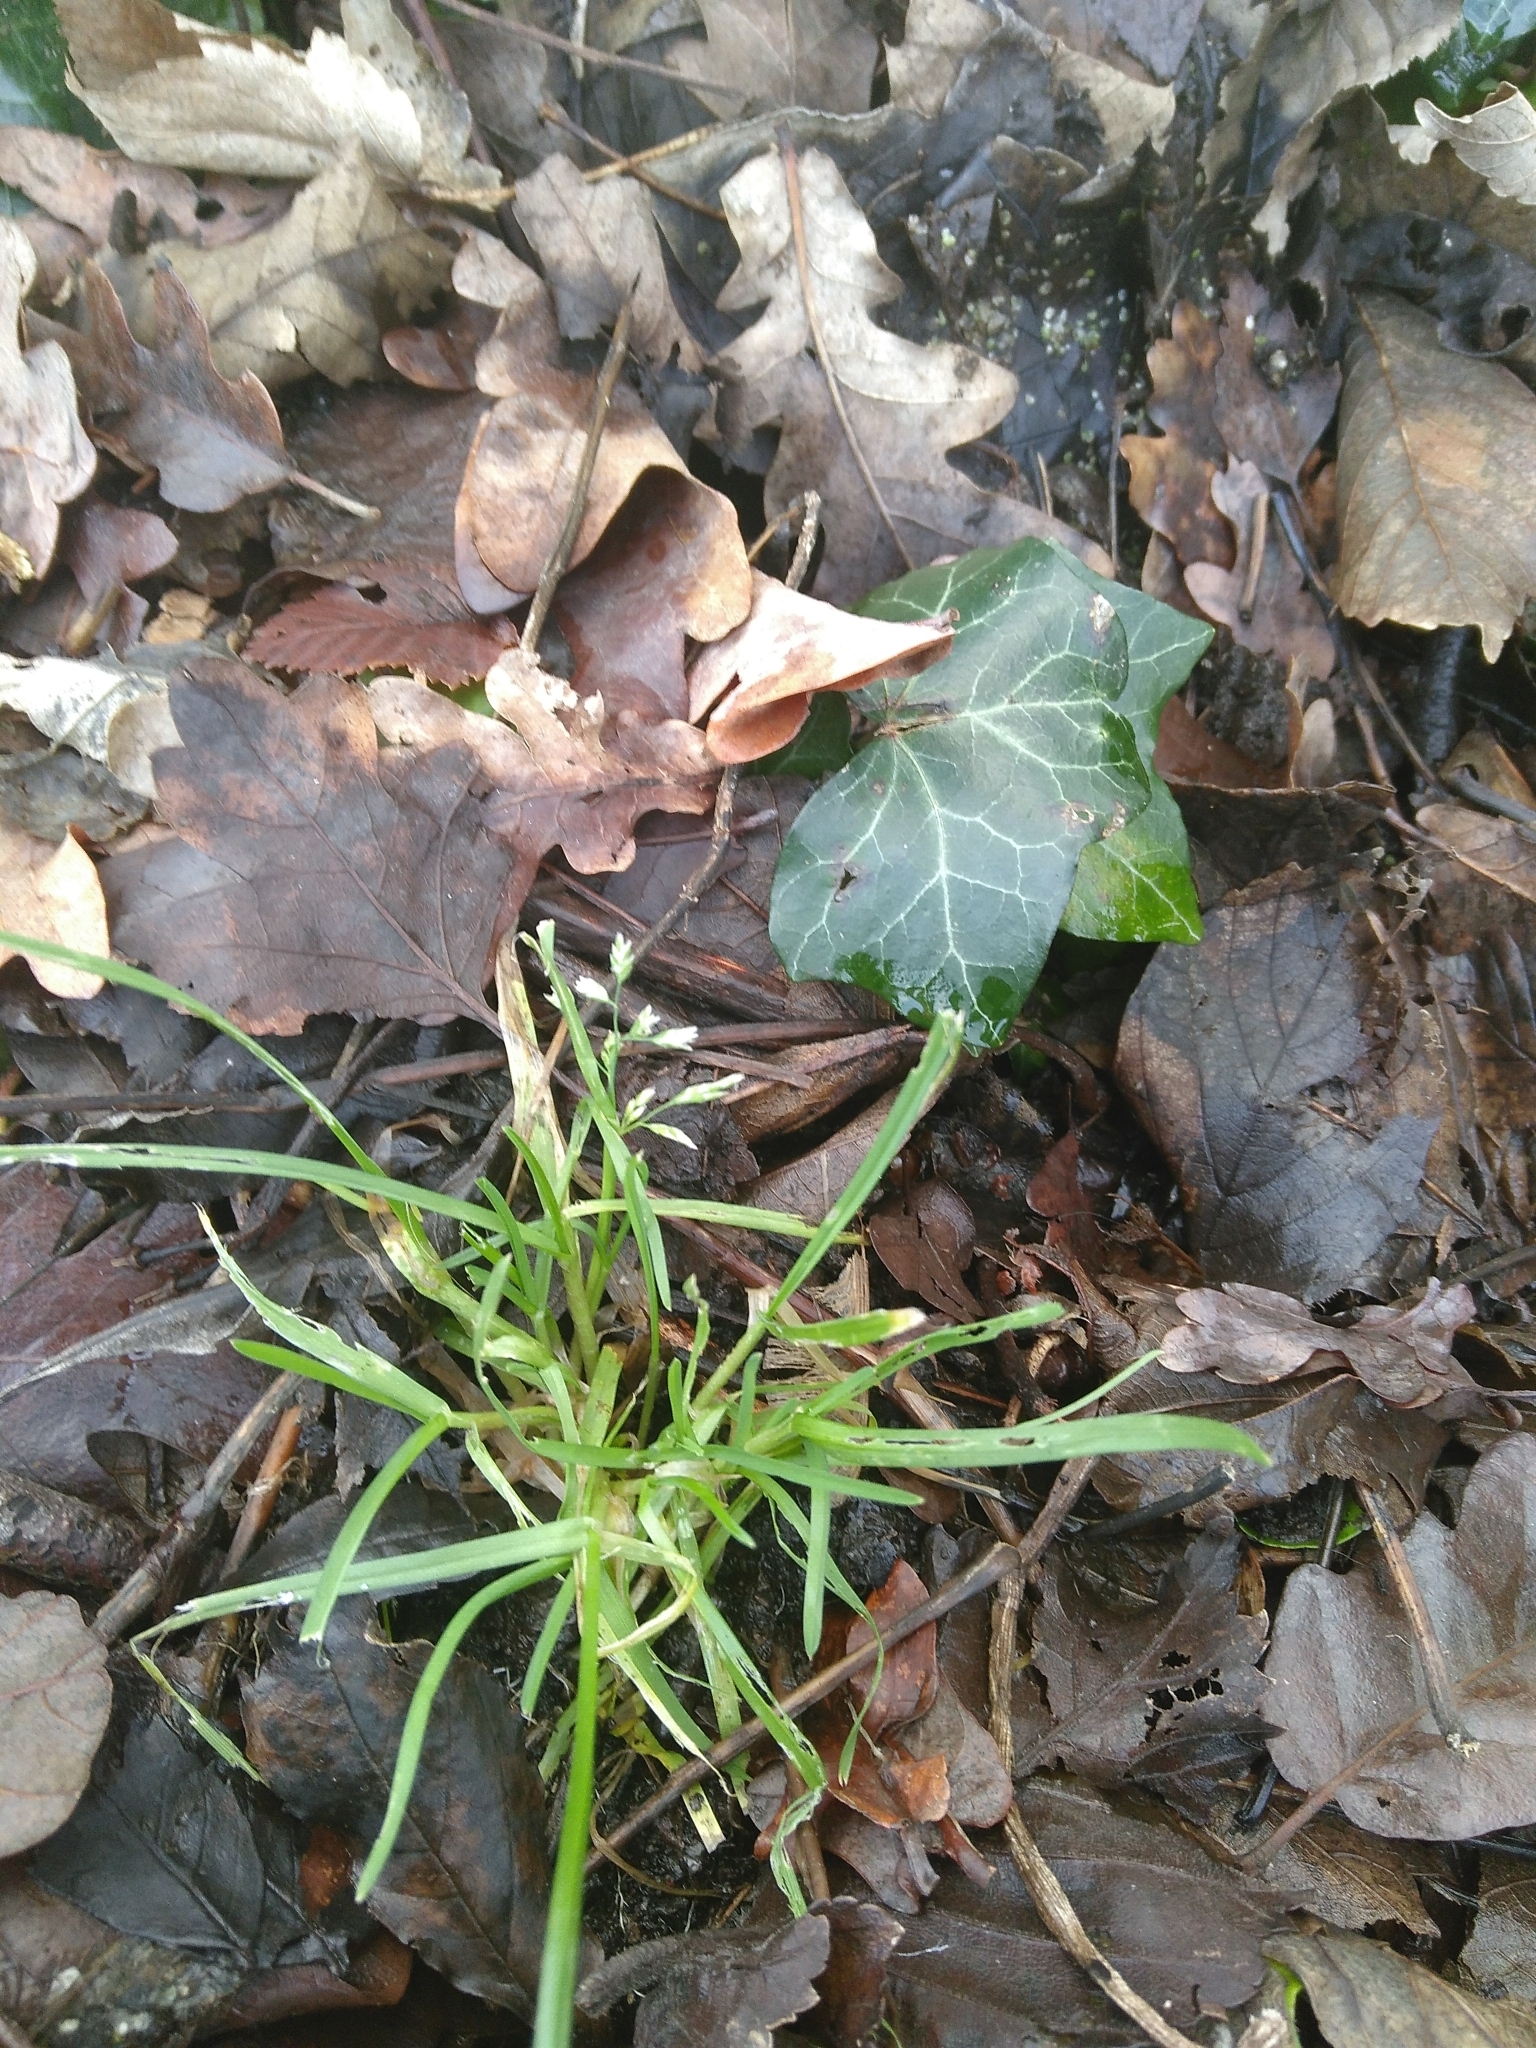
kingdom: Plantae
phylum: Tracheophyta
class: Liliopsida
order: Poales
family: Poaceae
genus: Poa
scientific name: Poa annua
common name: Annual bluegrass
